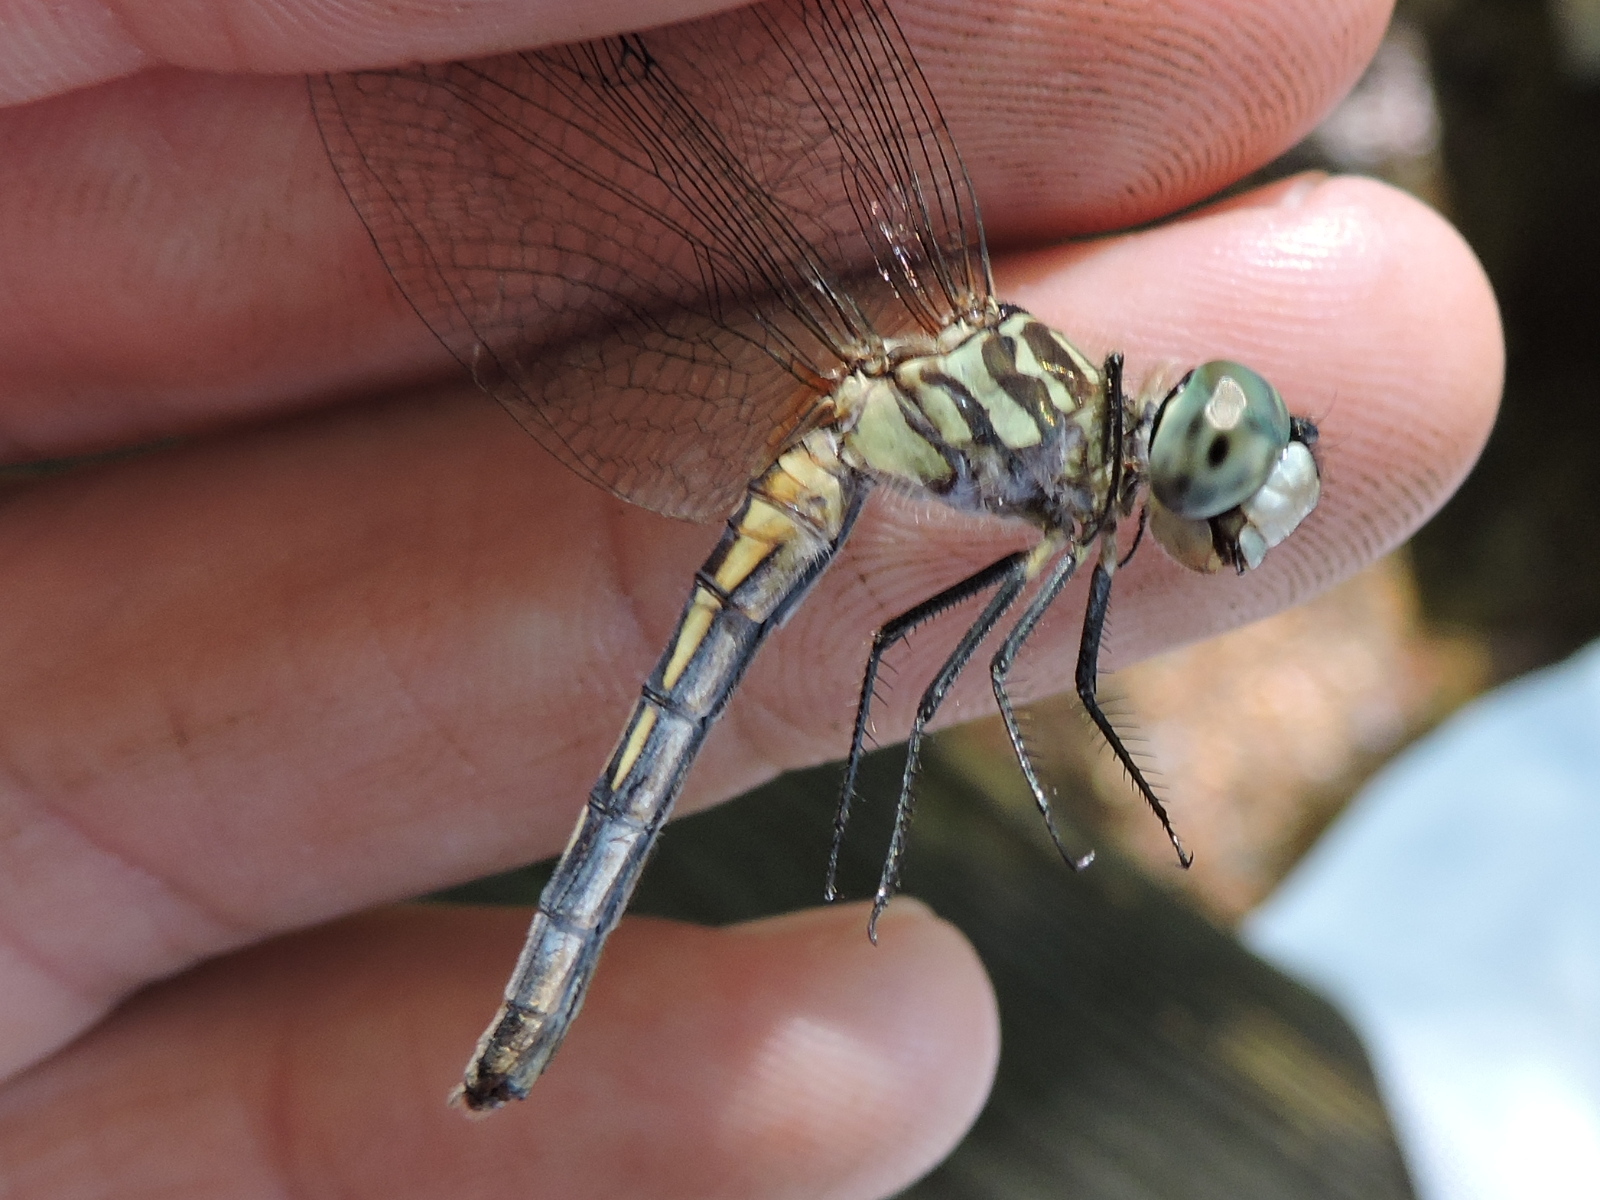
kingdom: Animalia
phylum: Arthropoda
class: Insecta
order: Odonata
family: Libellulidae
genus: Pachydiplax
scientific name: Pachydiplax longipennis
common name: Blue dasher
